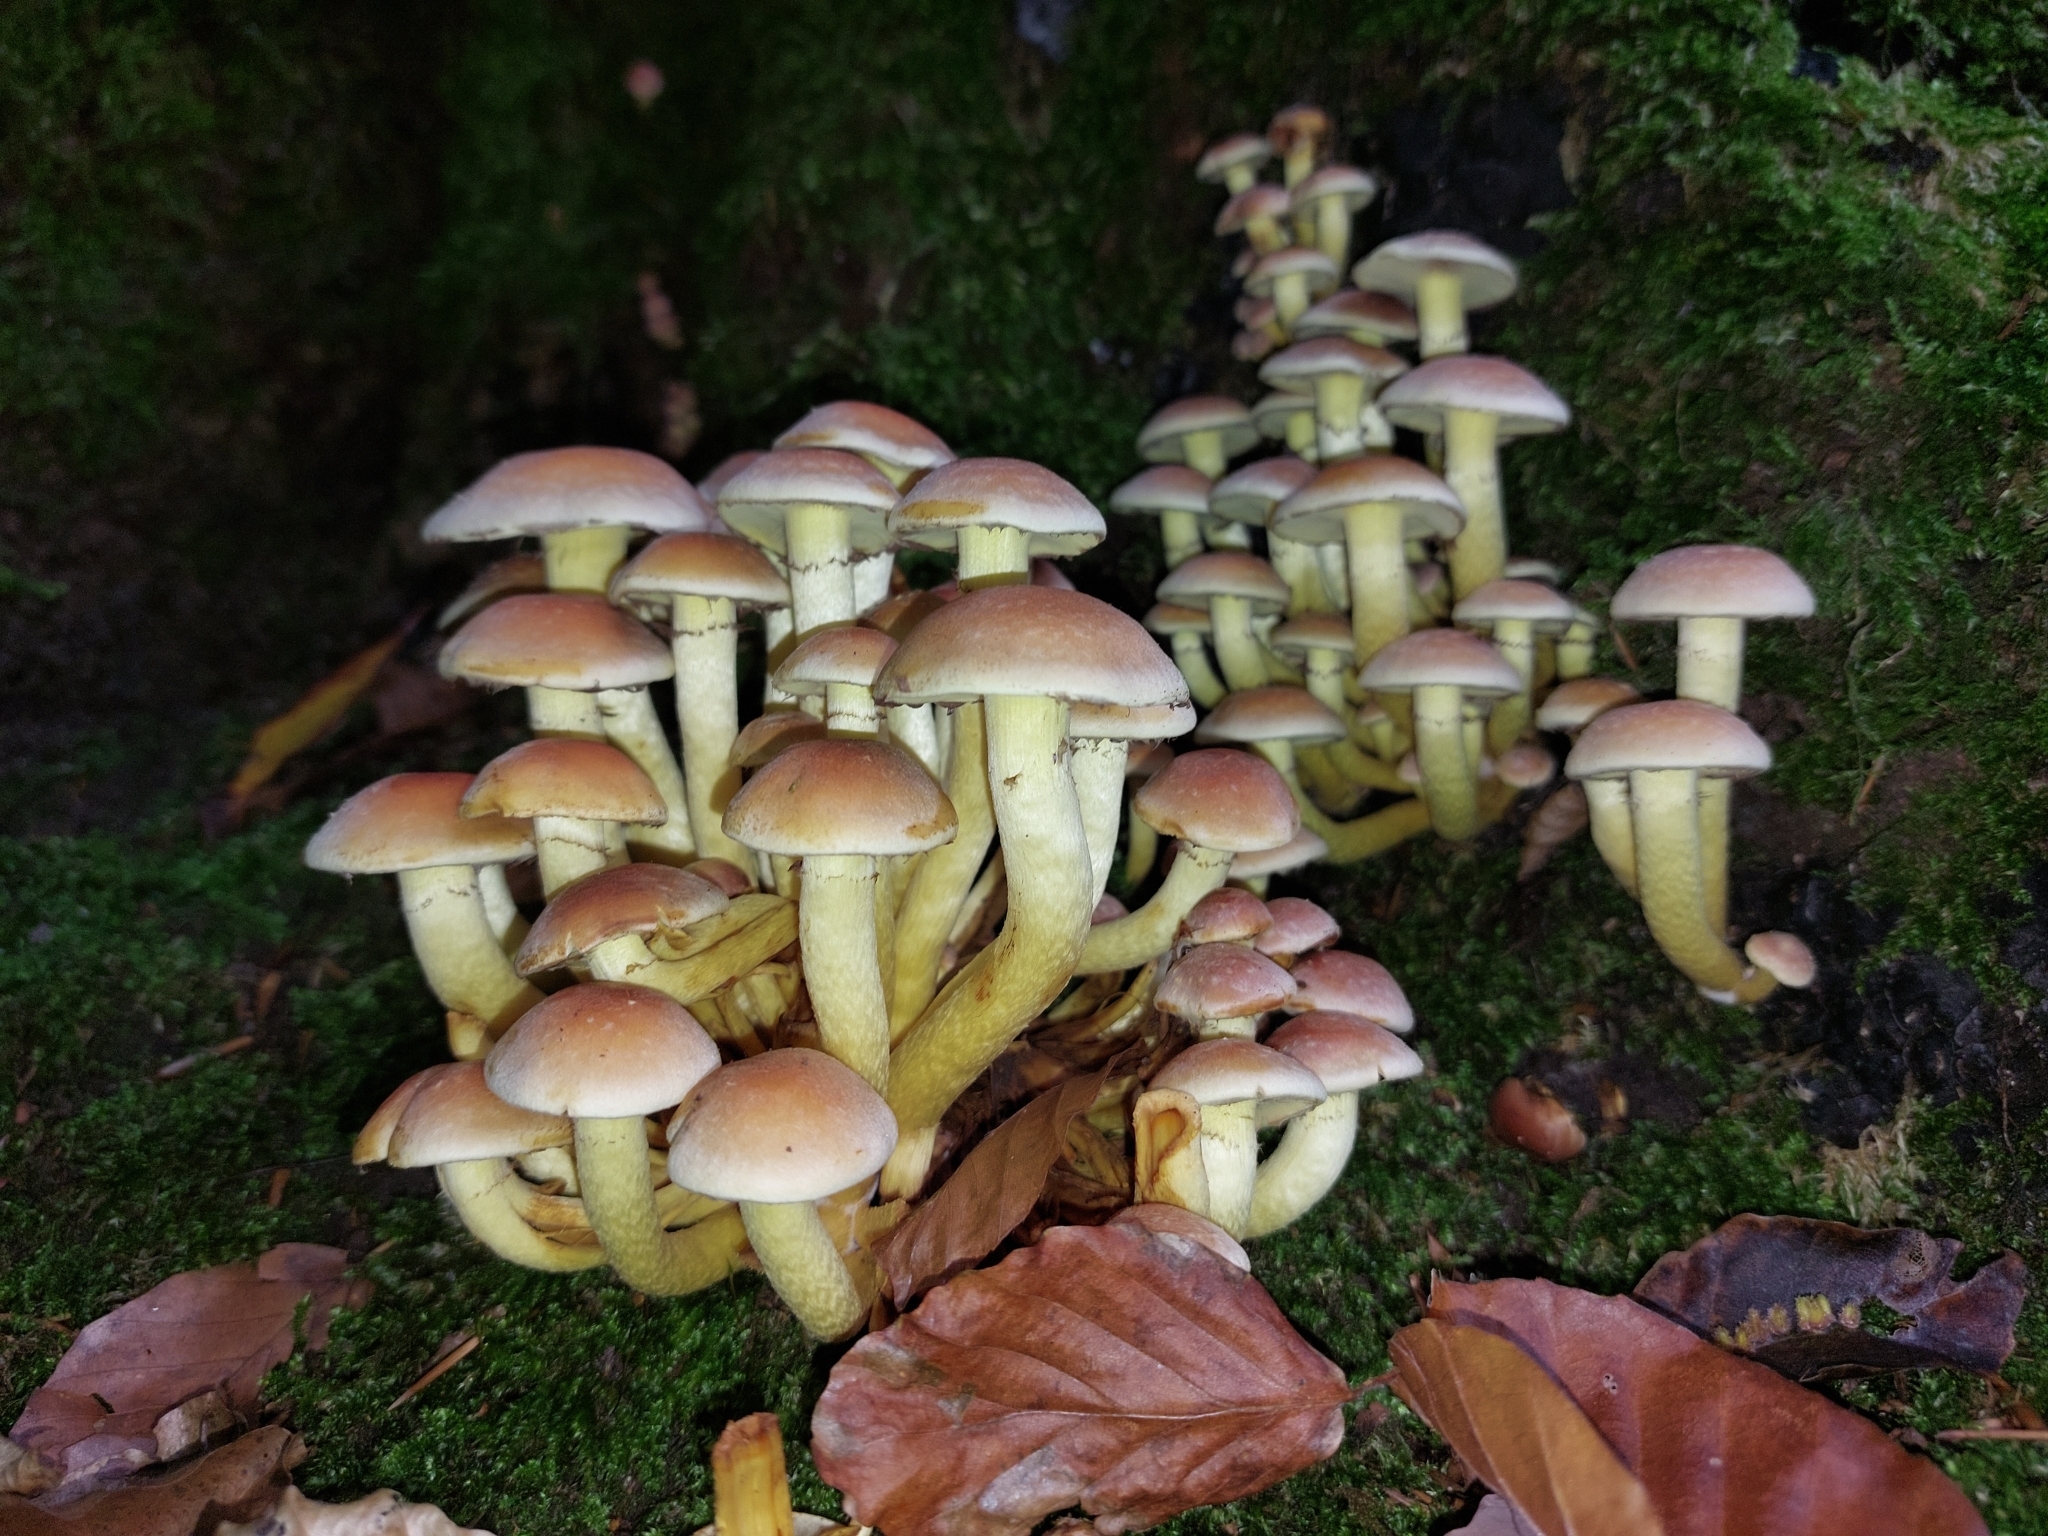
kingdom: Fungi
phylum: Basidiomycota
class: Agaricomycetes
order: Agaricales
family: Strophariaceae
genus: Hypholoma
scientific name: Hypholoma fasciculare
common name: Sulphur tuft
